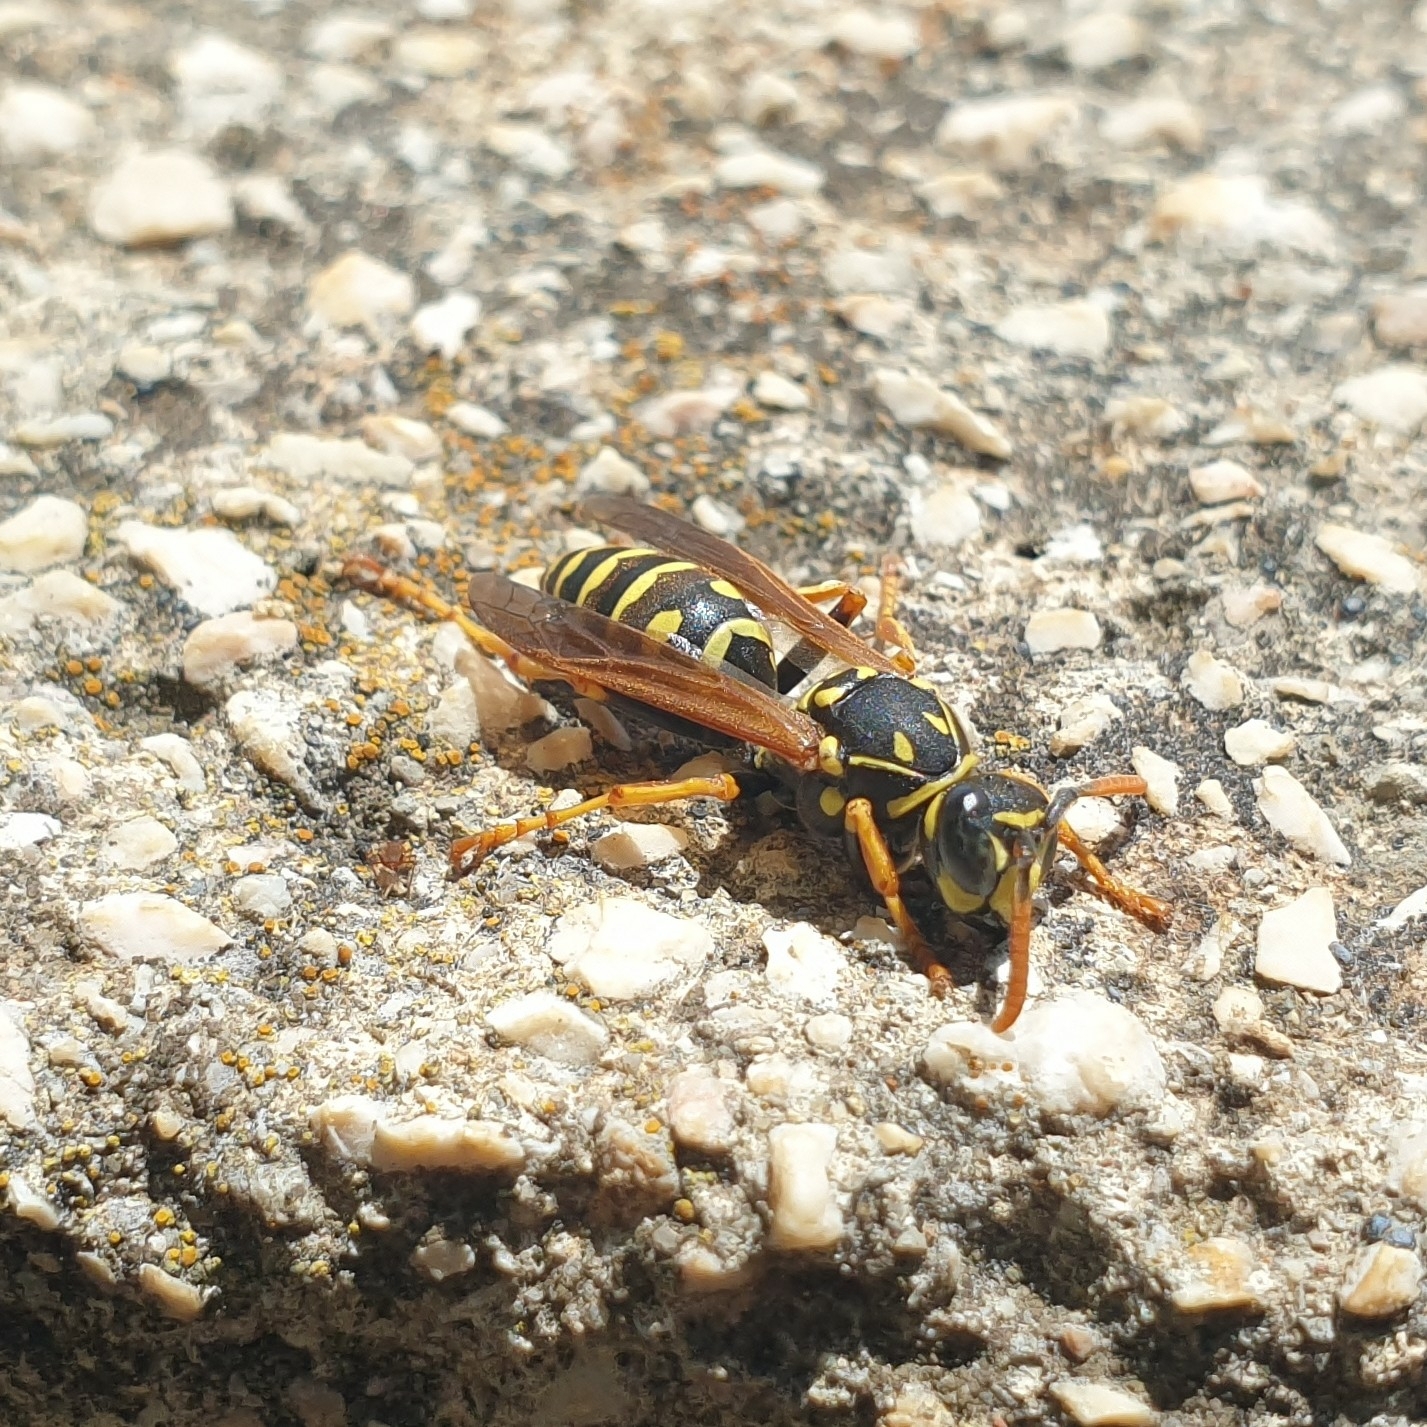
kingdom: Animalia
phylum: Arthropoda
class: Insecta
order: Hymenoptera
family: Eumenidae
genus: Polistes
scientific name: Polistes dominula
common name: Paper wasp
